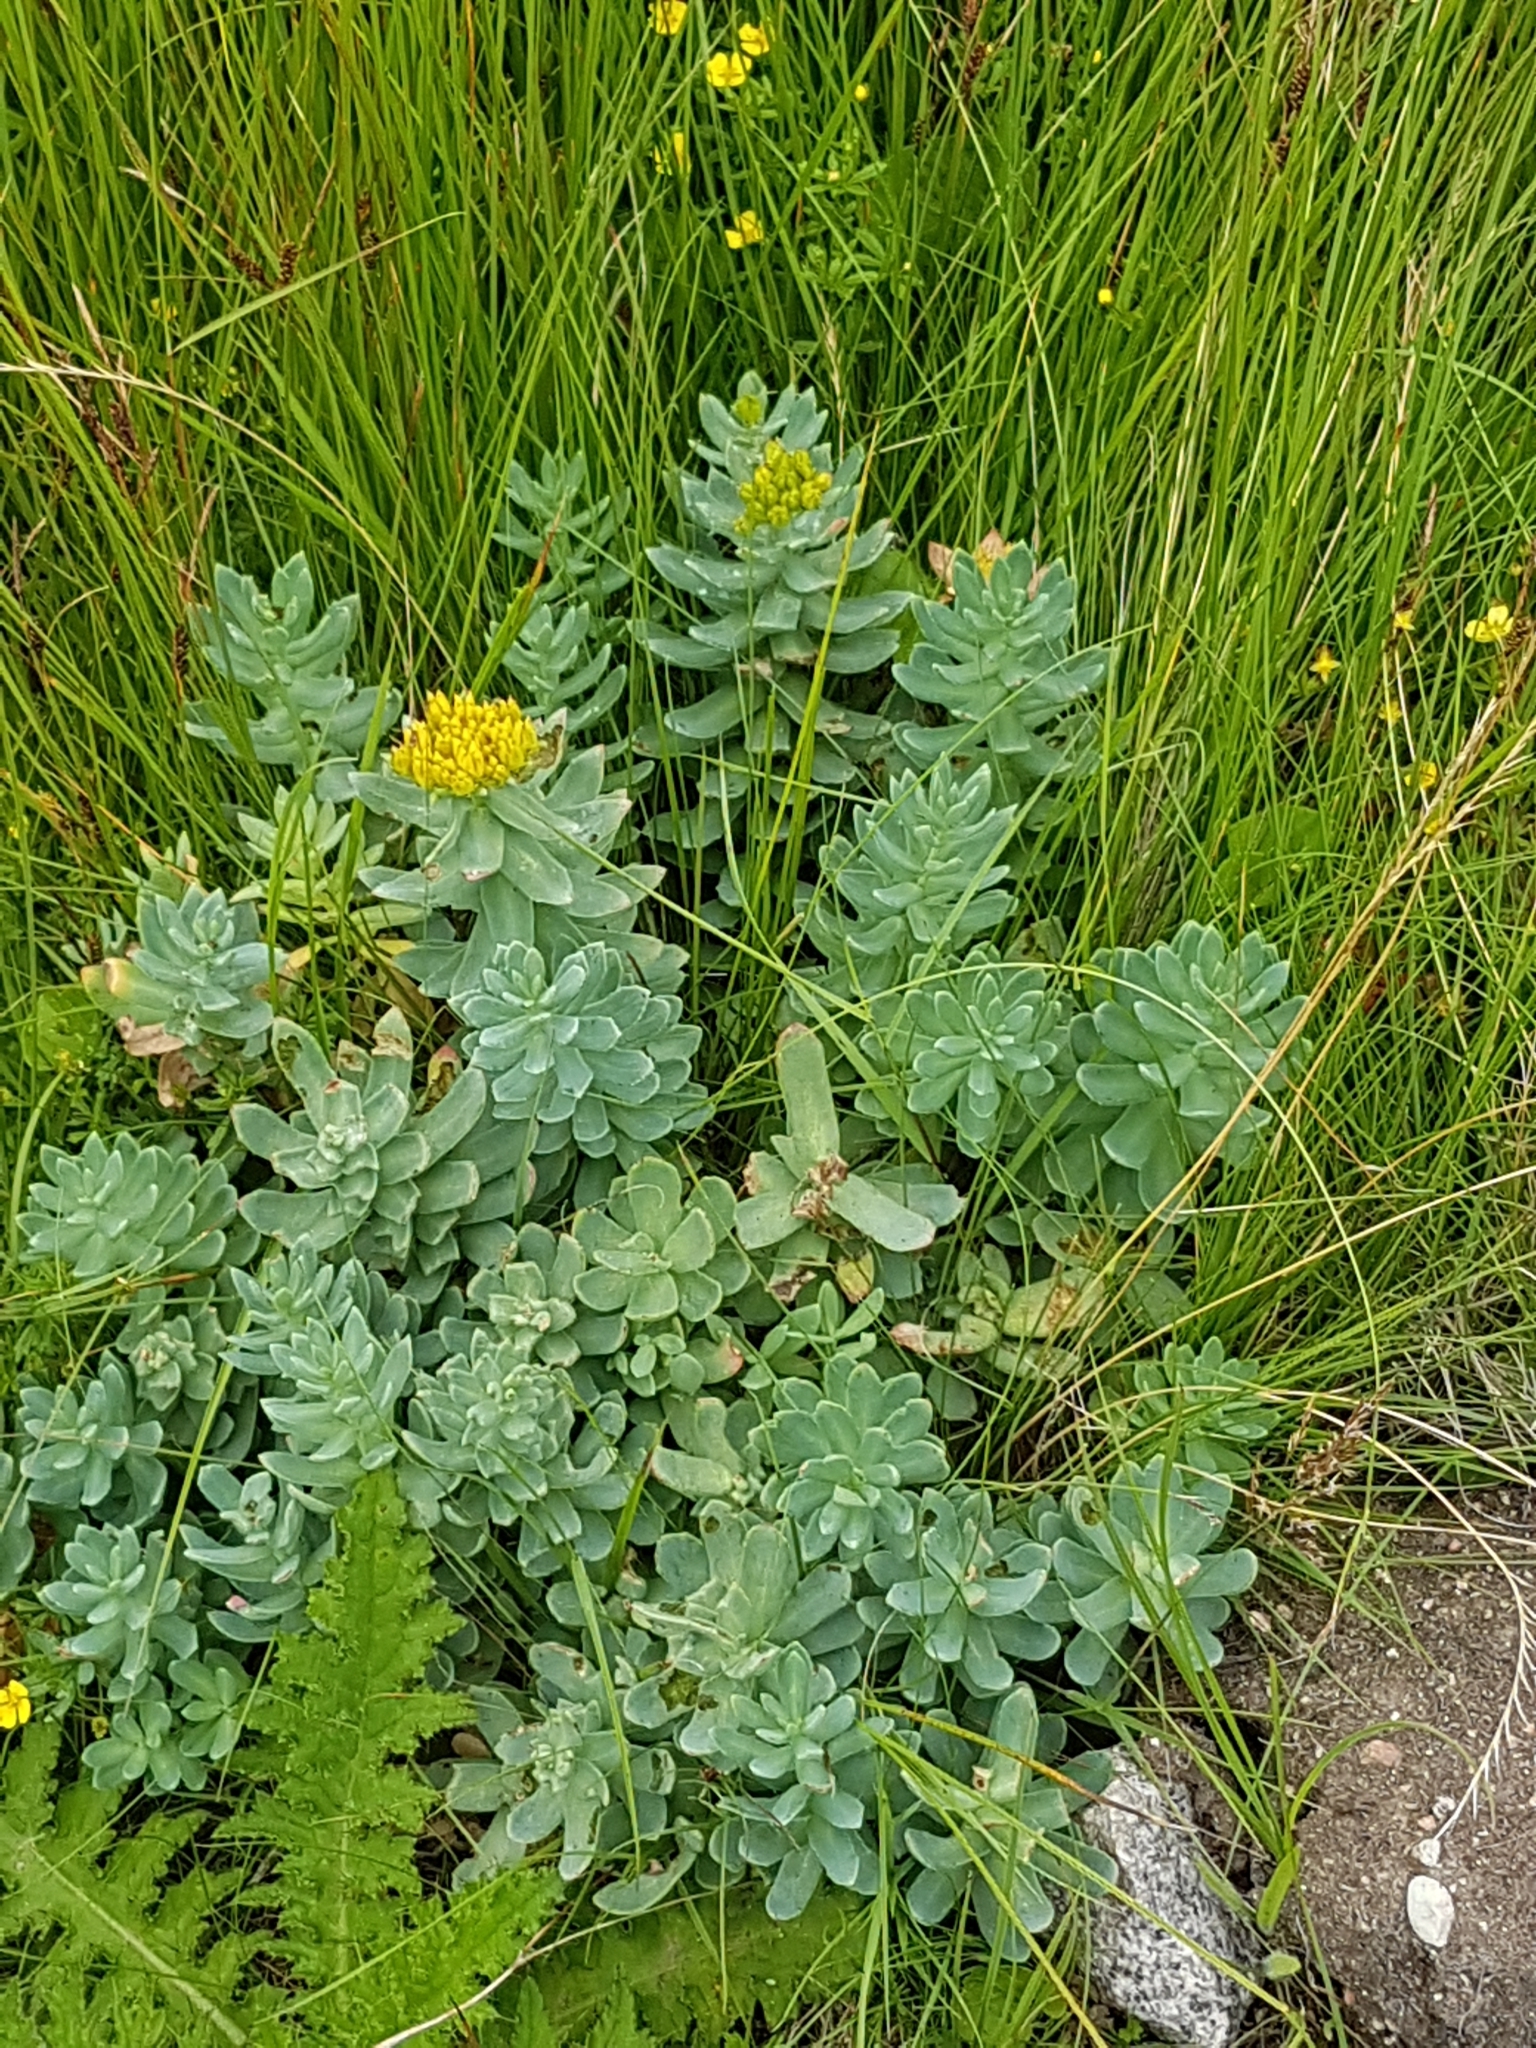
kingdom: Plantae
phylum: Tracheophyta
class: Magnoliopsida
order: Saxifragales
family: Crassulaceae
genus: Rhodiola
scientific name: Rhodiola rosea
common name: Roseroot
